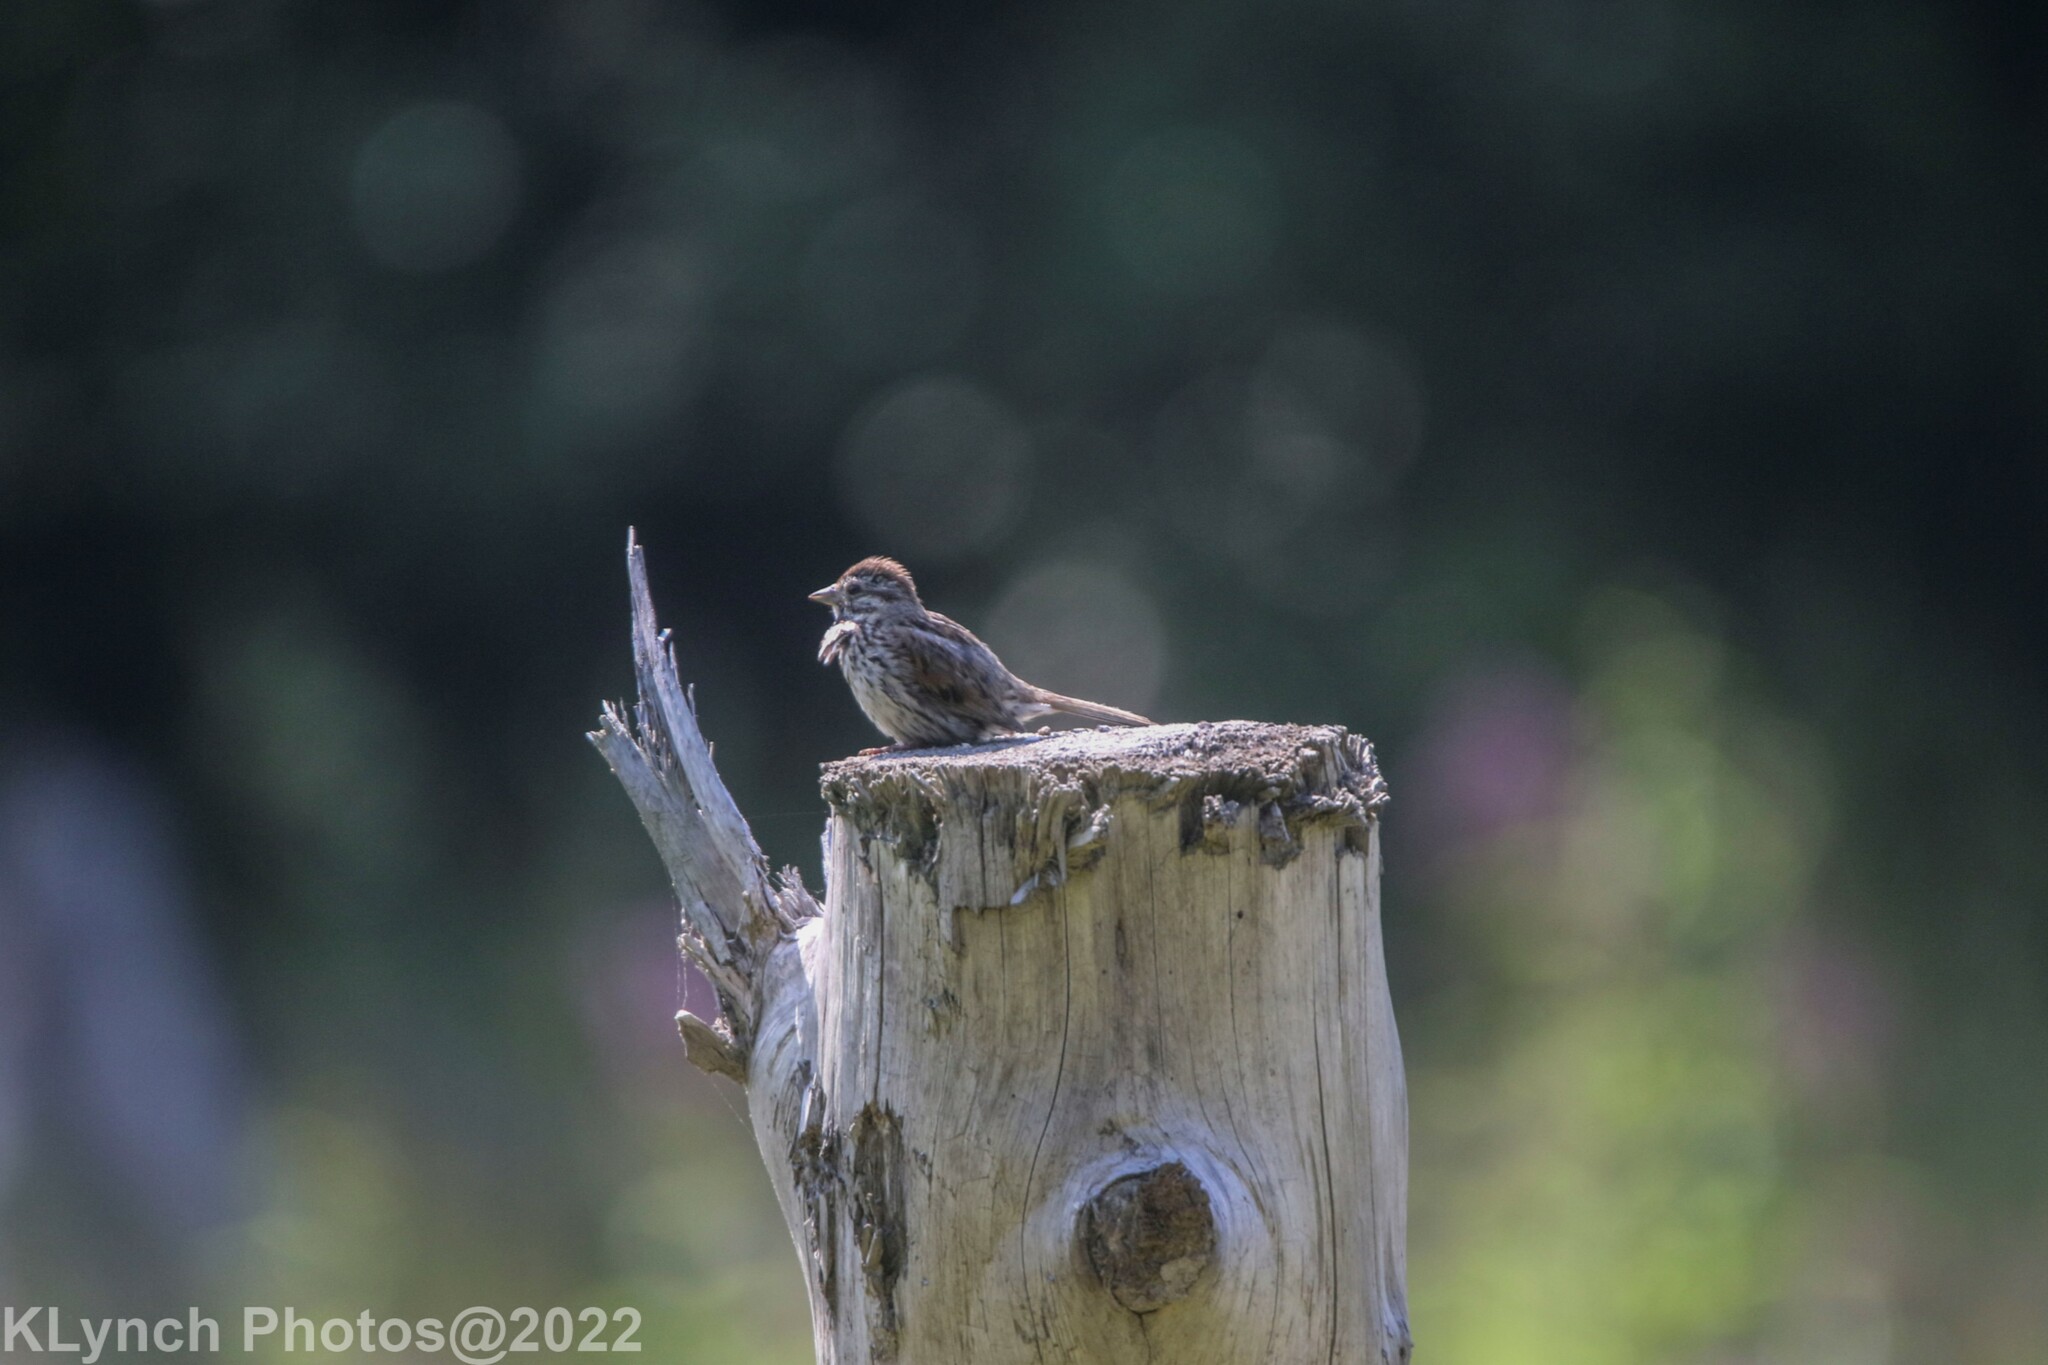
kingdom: Animalia
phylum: Chordata
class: Aves
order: Passeriformes
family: Passerellidae
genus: Melospiza
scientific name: Melospiza melodia
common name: Song sparrow
